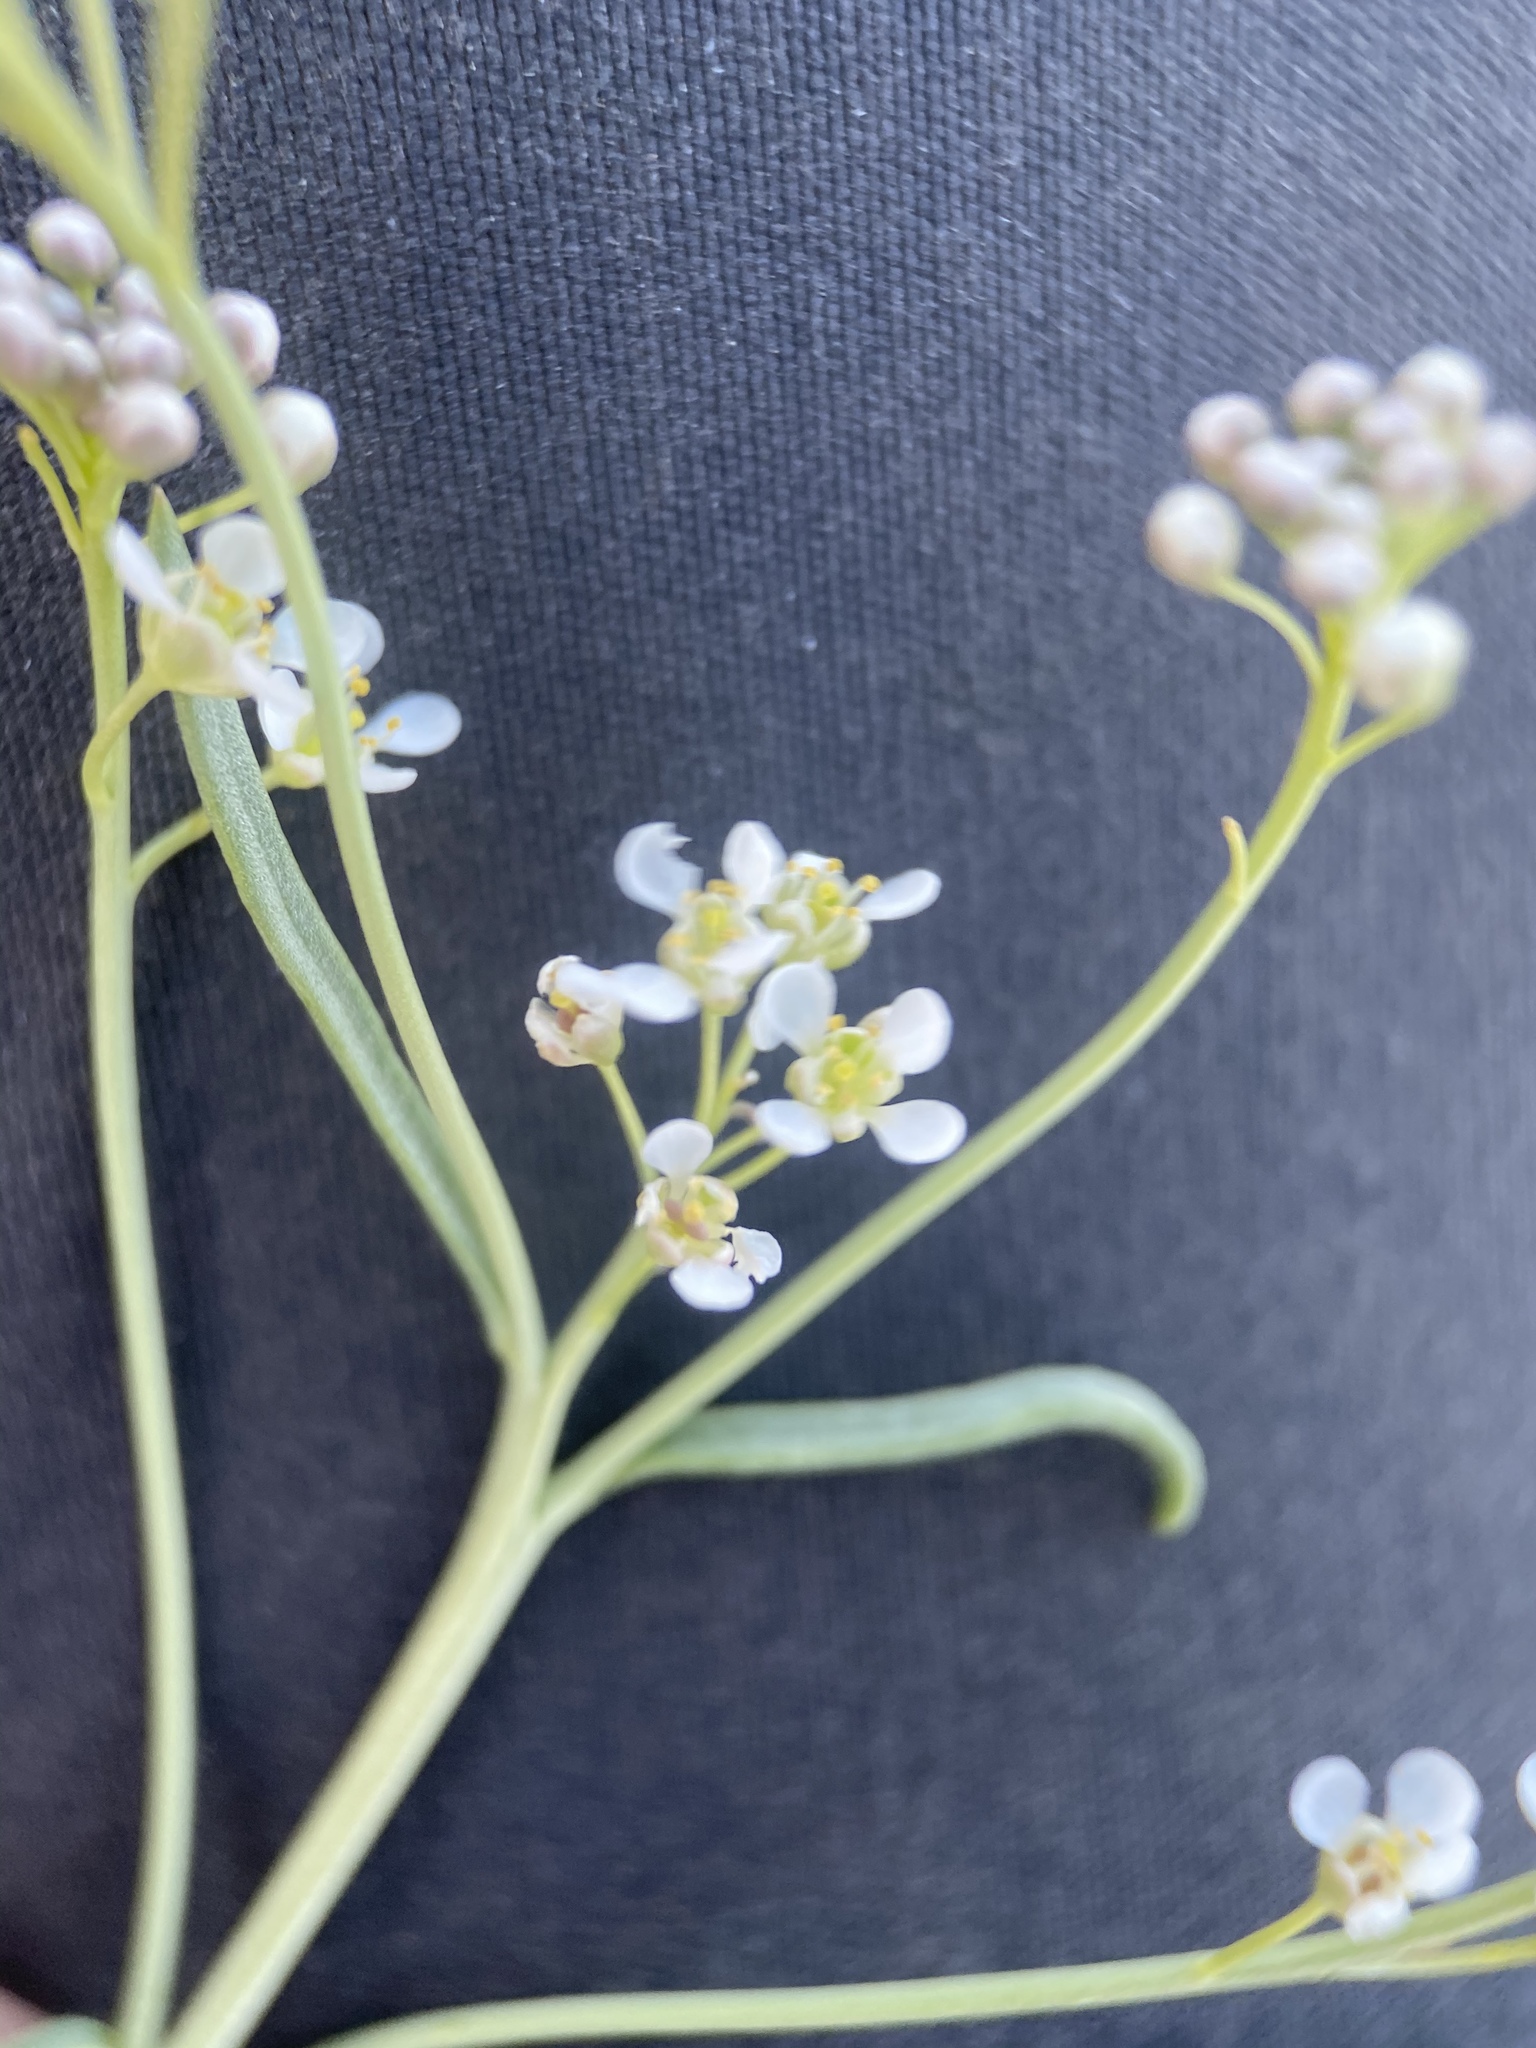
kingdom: Plantae
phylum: Tracheophyta
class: Magnoliopsida
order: Brassicales
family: Brassicaceae
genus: Lepidium
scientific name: Lepidium fremontii
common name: Fremont's pepperwort
